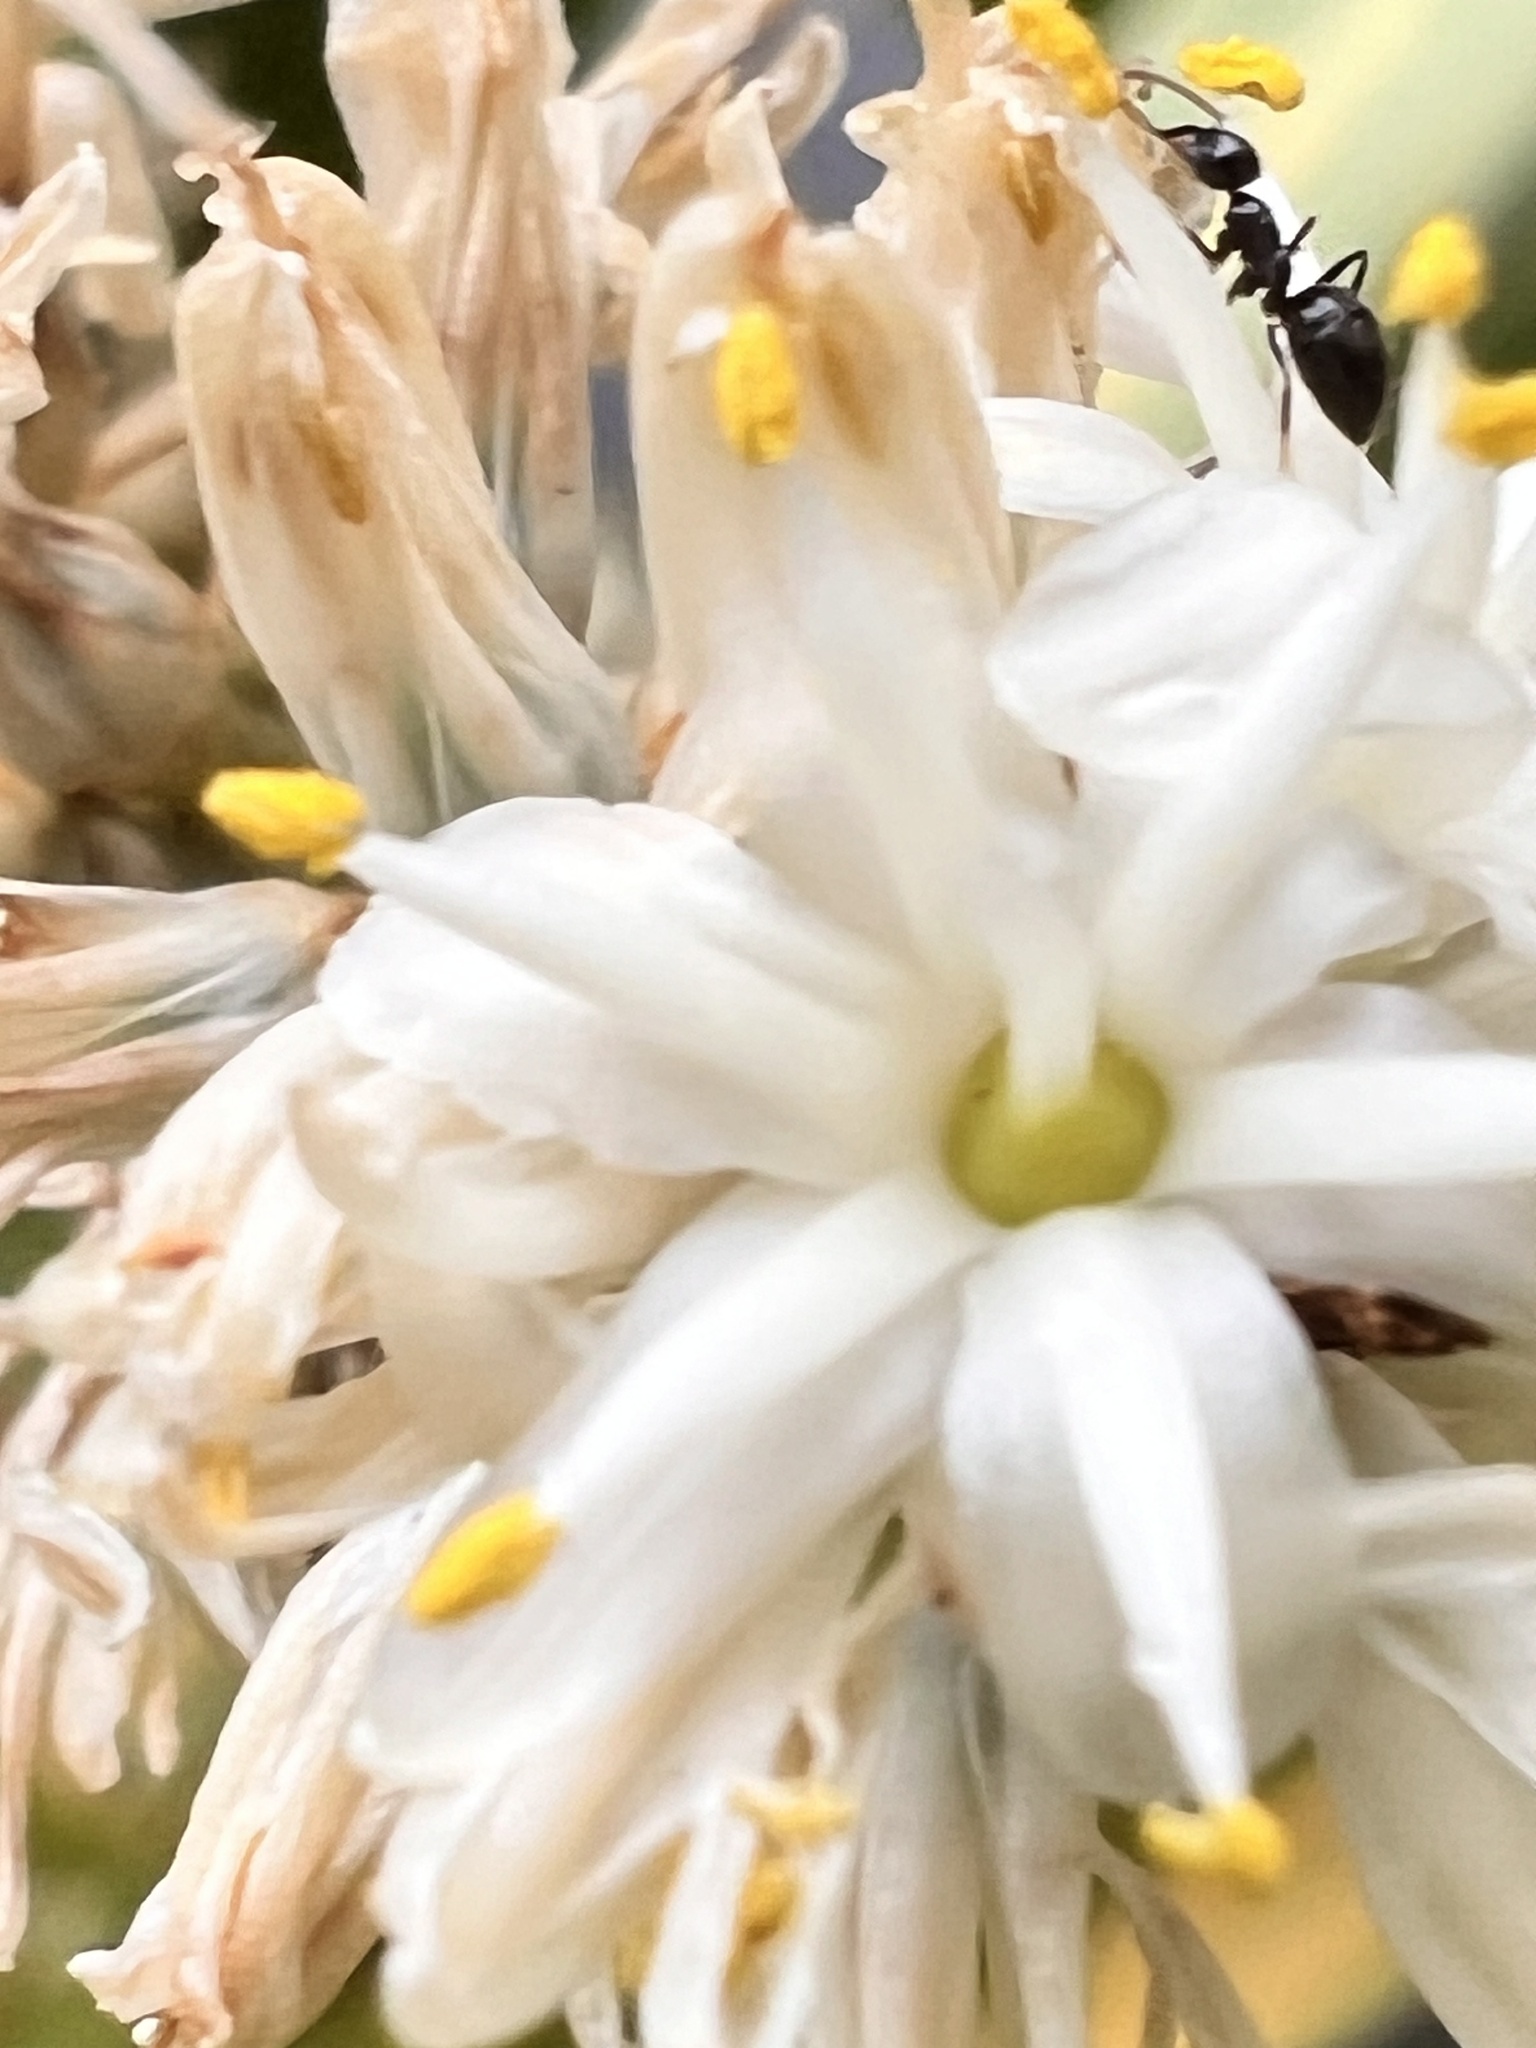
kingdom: Animalia
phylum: Arthropoda
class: Insecta
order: Hymenoptera
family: Formicidae
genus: Technomyrmex
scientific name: Technomyrmex jocosus
